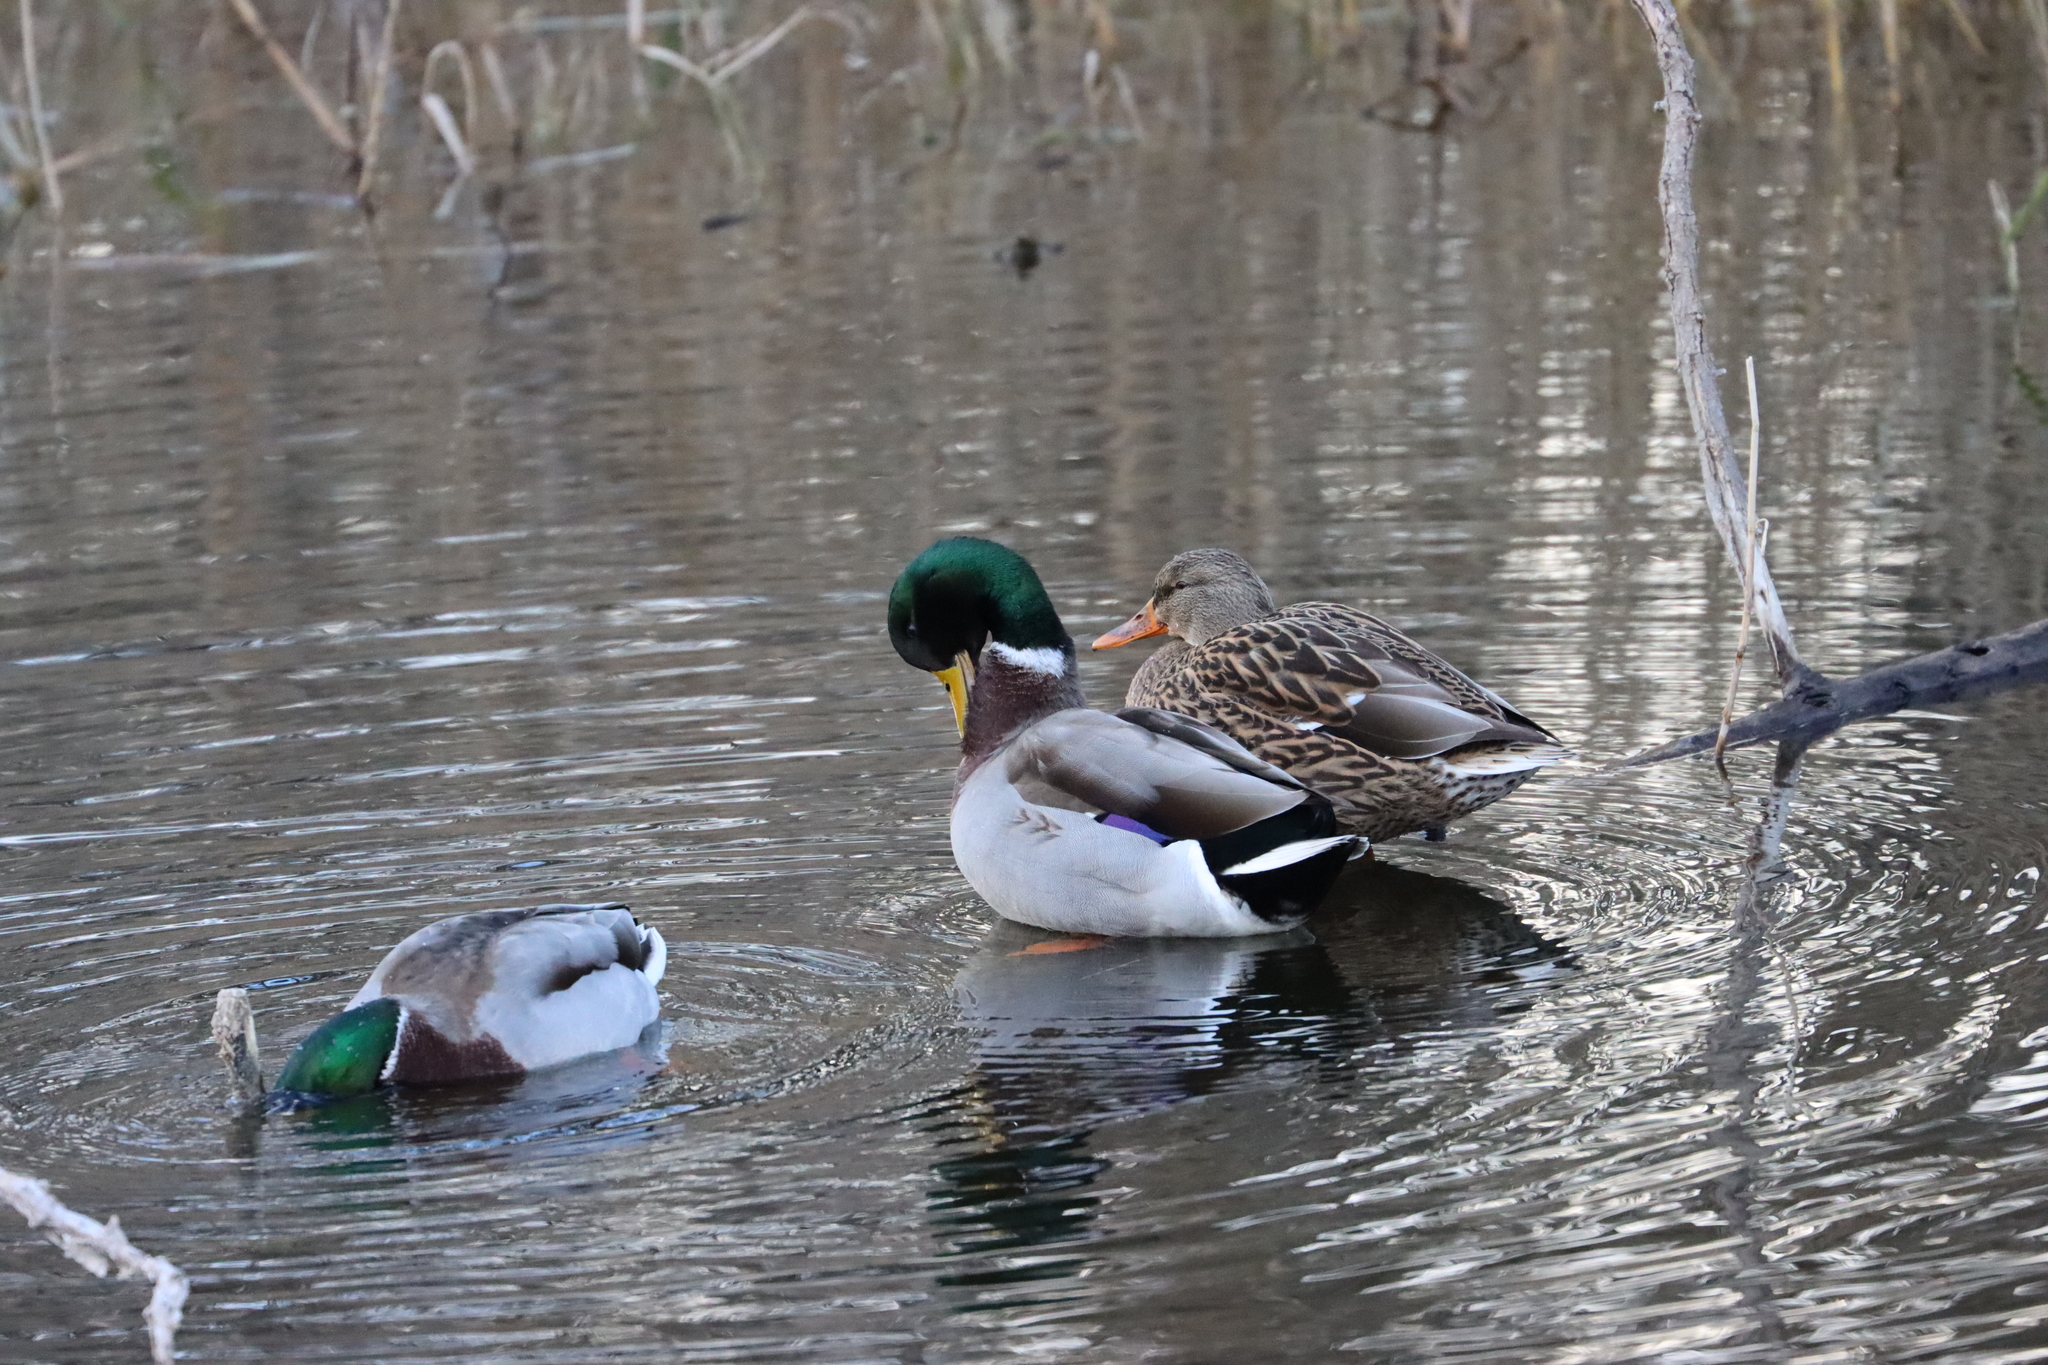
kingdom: Animalia
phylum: Chordata
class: Aves
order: Anseriformes
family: Anatidae
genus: Anas
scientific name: Anas platyrhynchos
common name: Mallard
